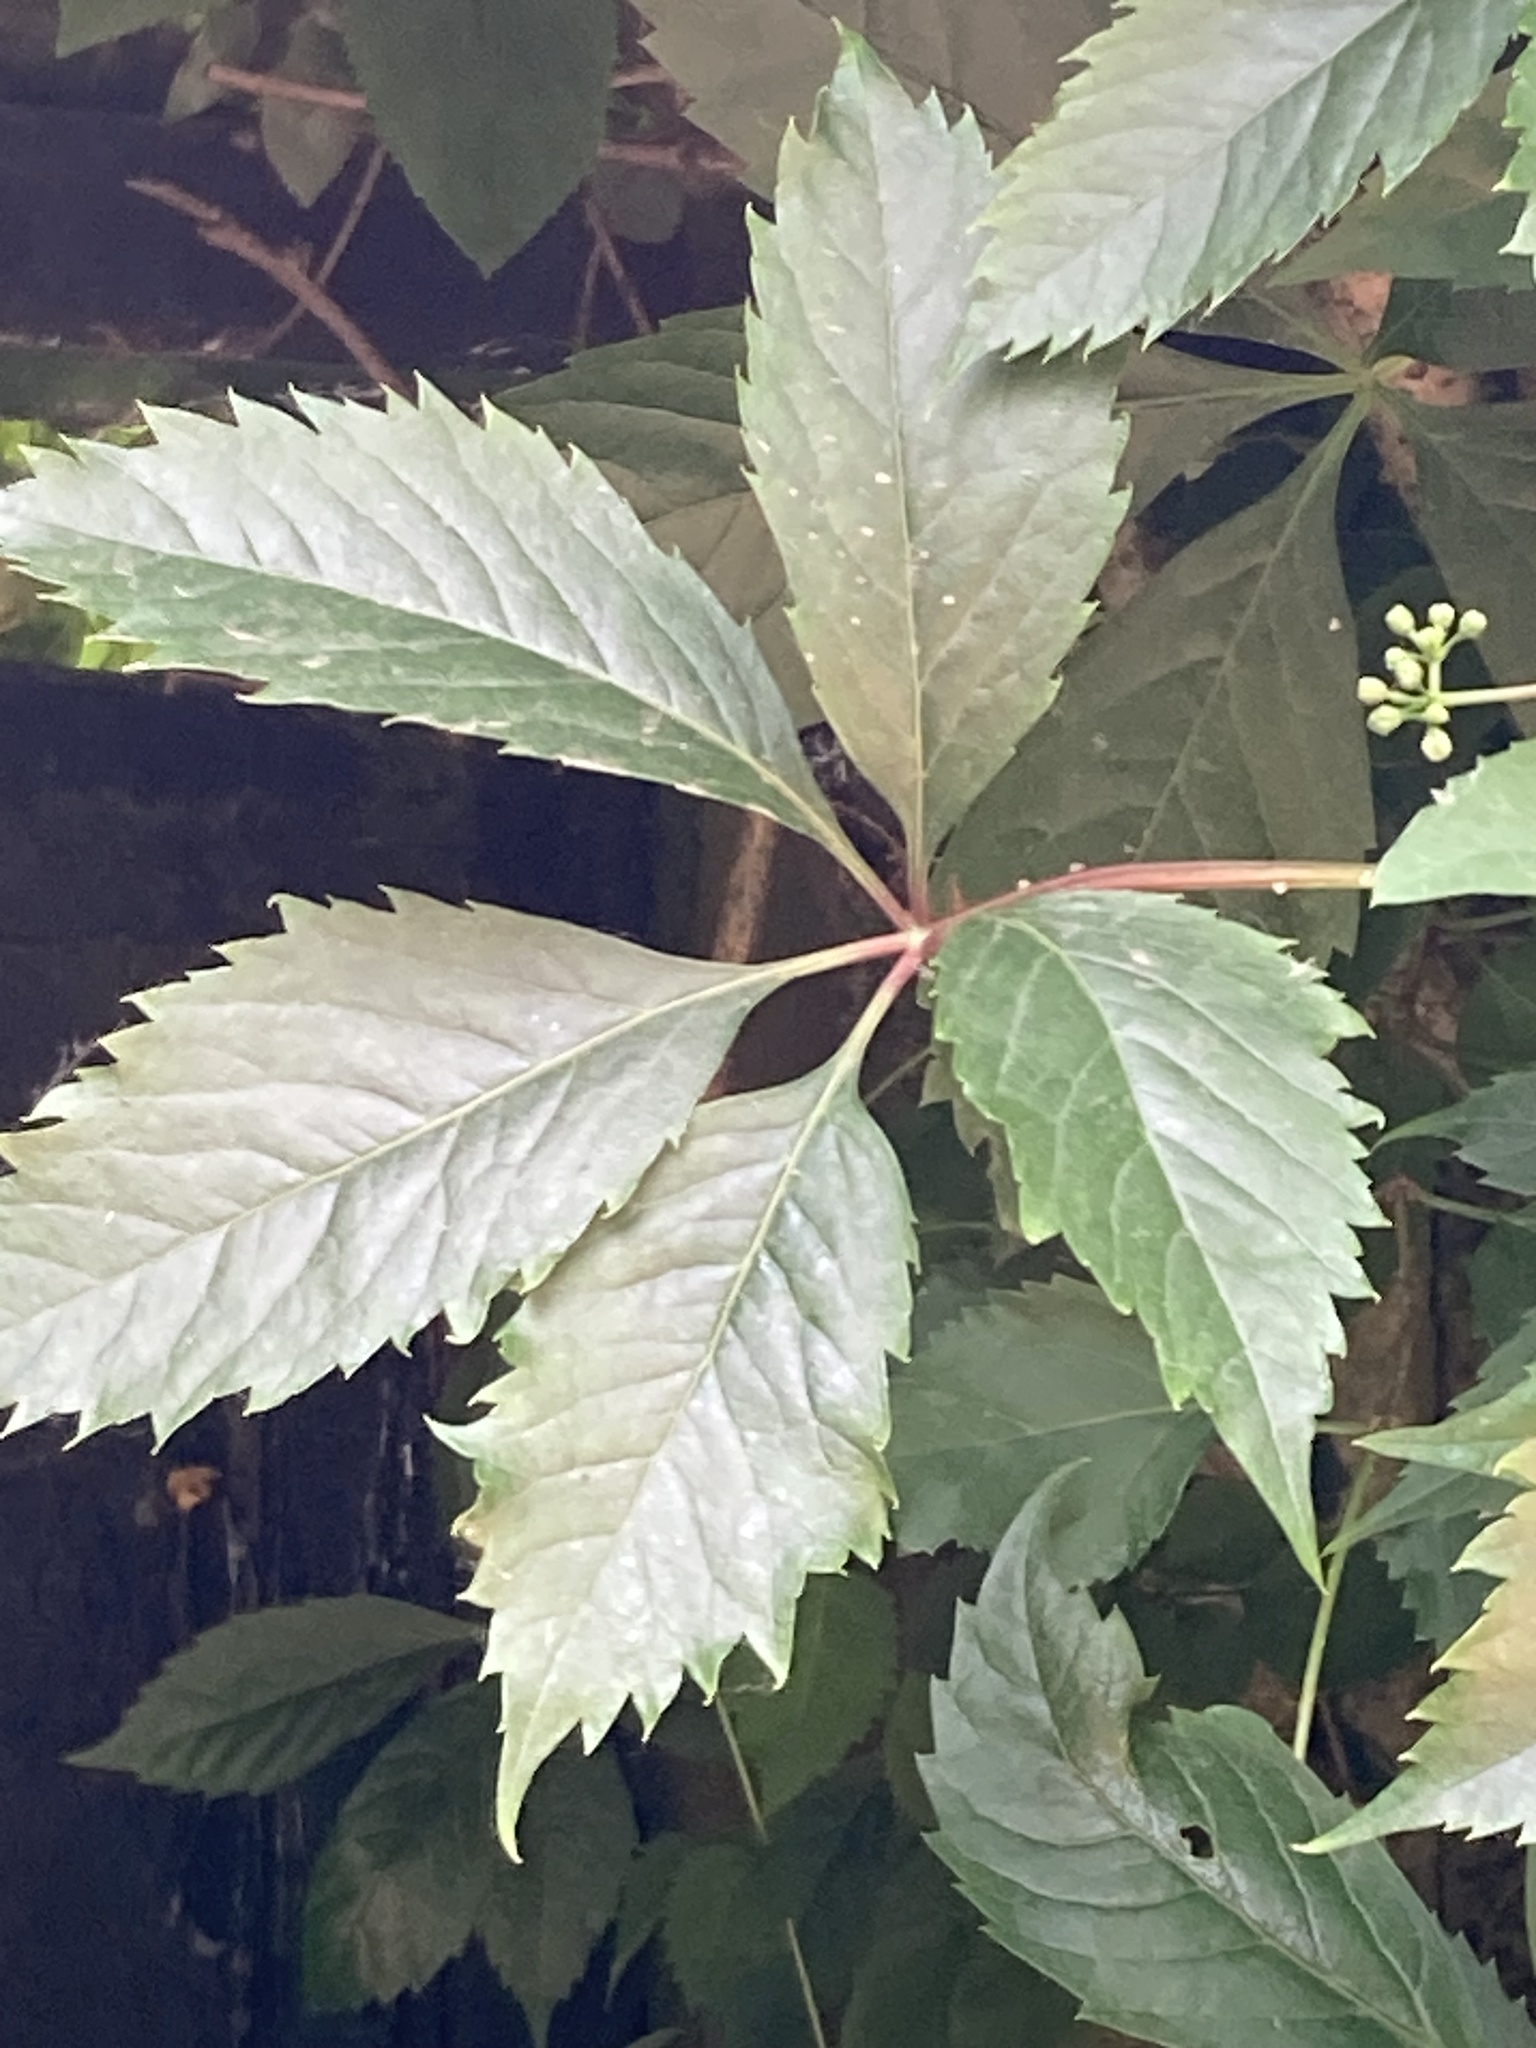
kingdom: Plantae
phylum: Tracheophyta
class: Magnoliopsida
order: Vitales
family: Vitaceae
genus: Parthenocissus
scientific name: Parthenocissus quinquefolia
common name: Virginia-creeper
